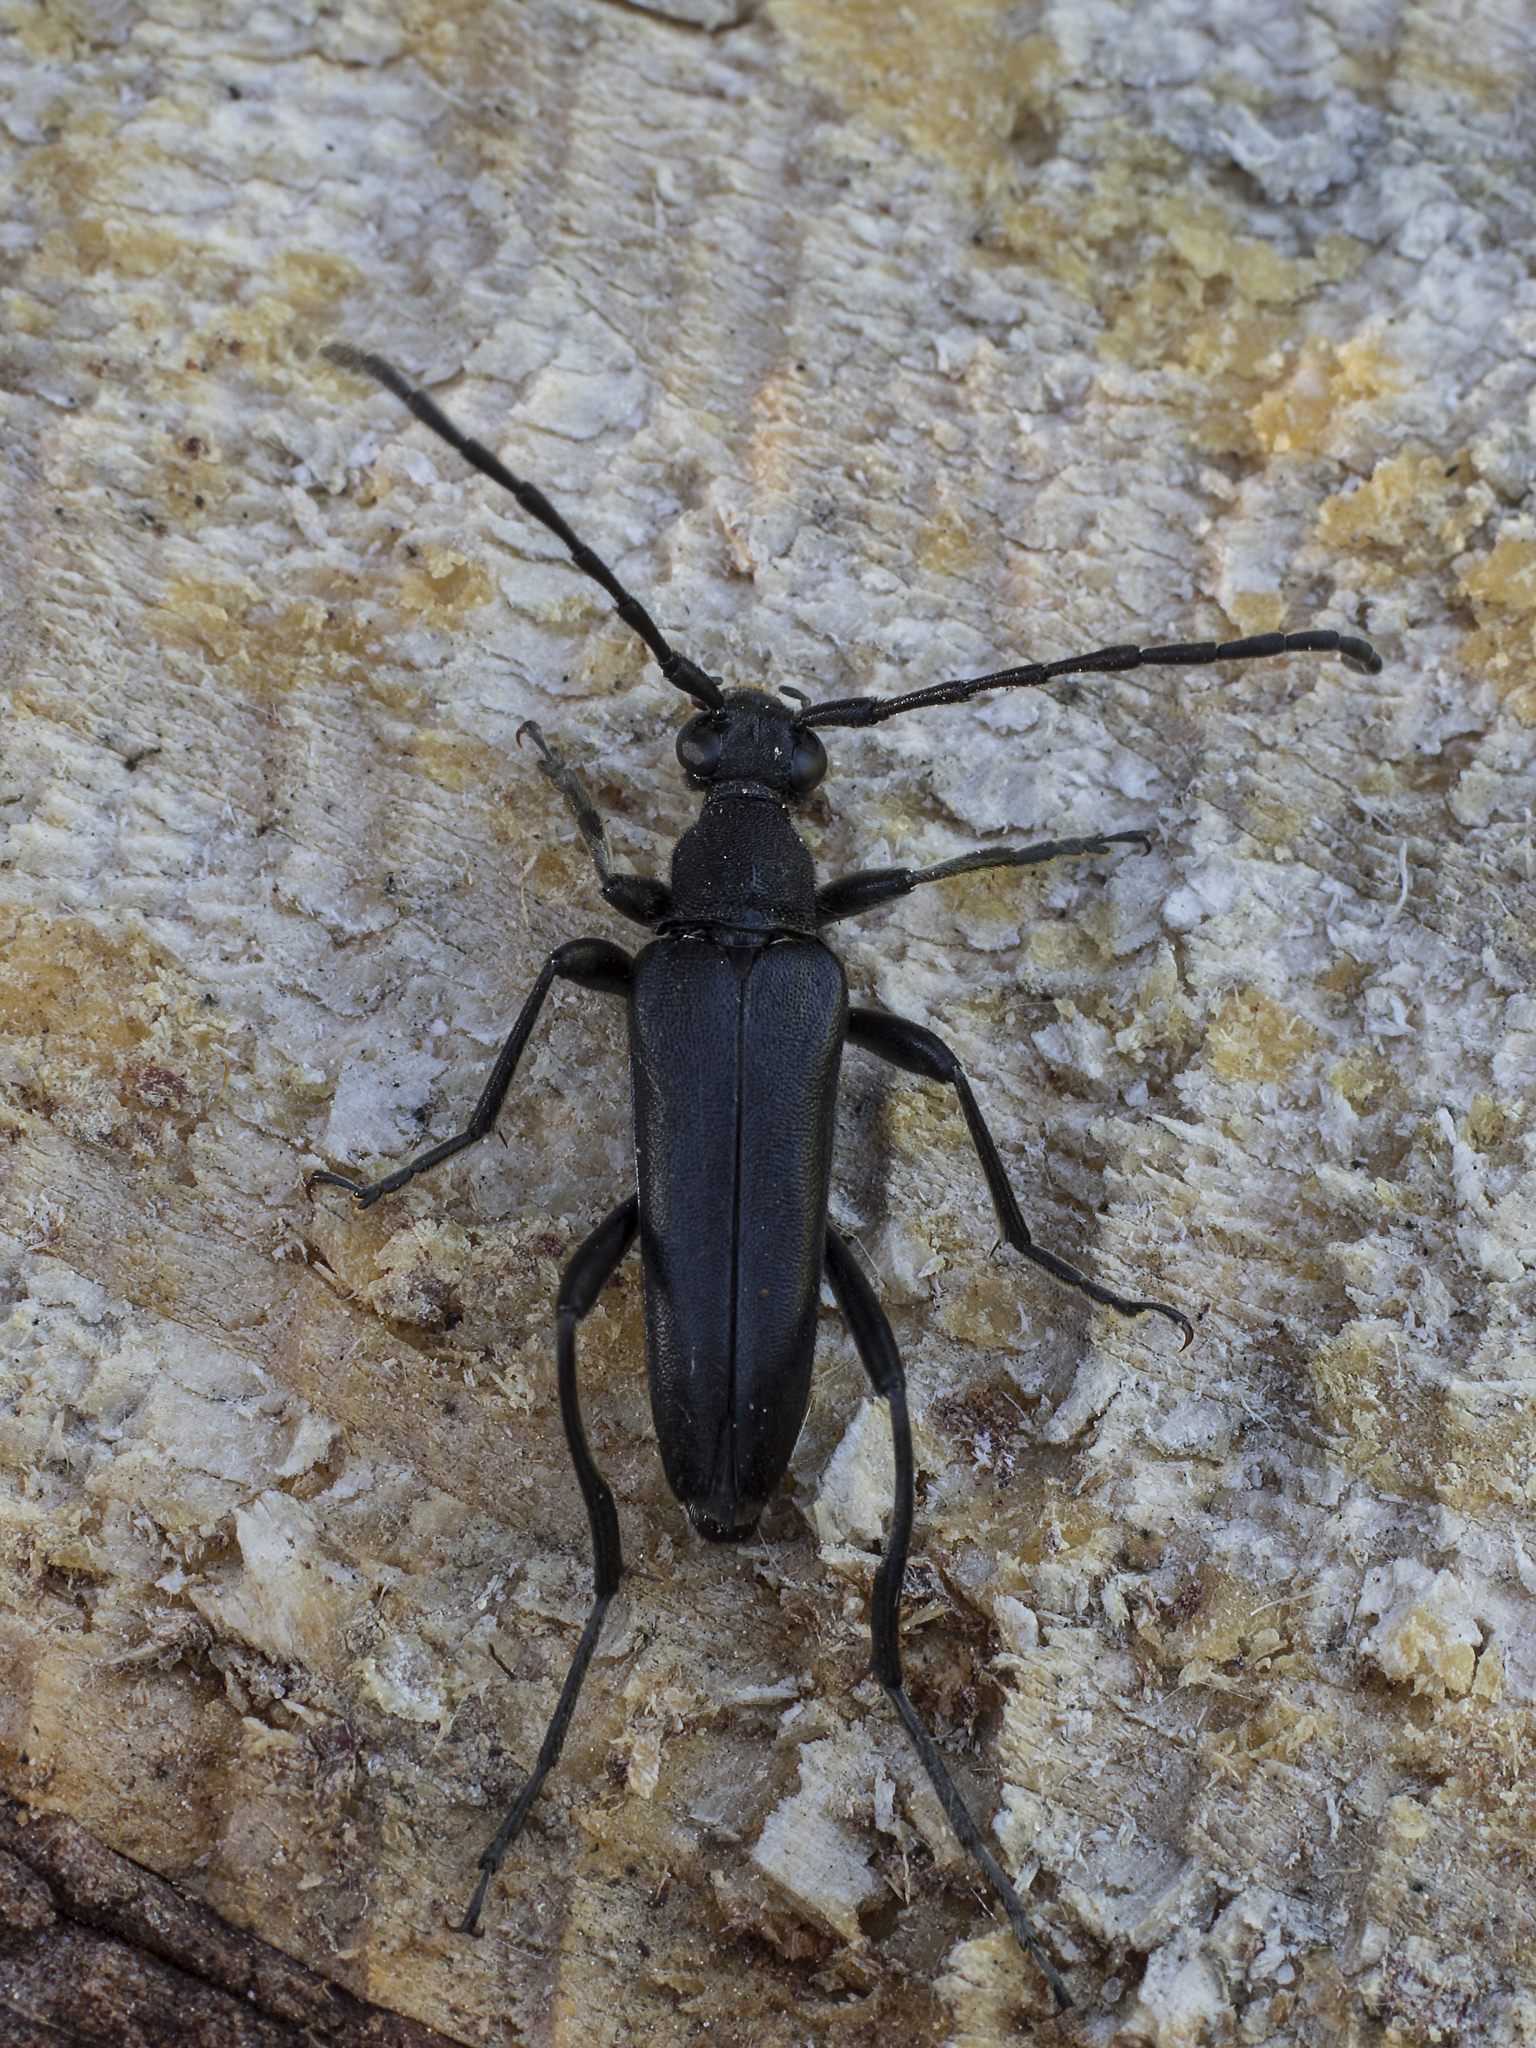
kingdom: Animalia
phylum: Arthropoda
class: Insecta
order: Coleoptera
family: Cerambycidae
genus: Leptura
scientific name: Leptura aethiops
